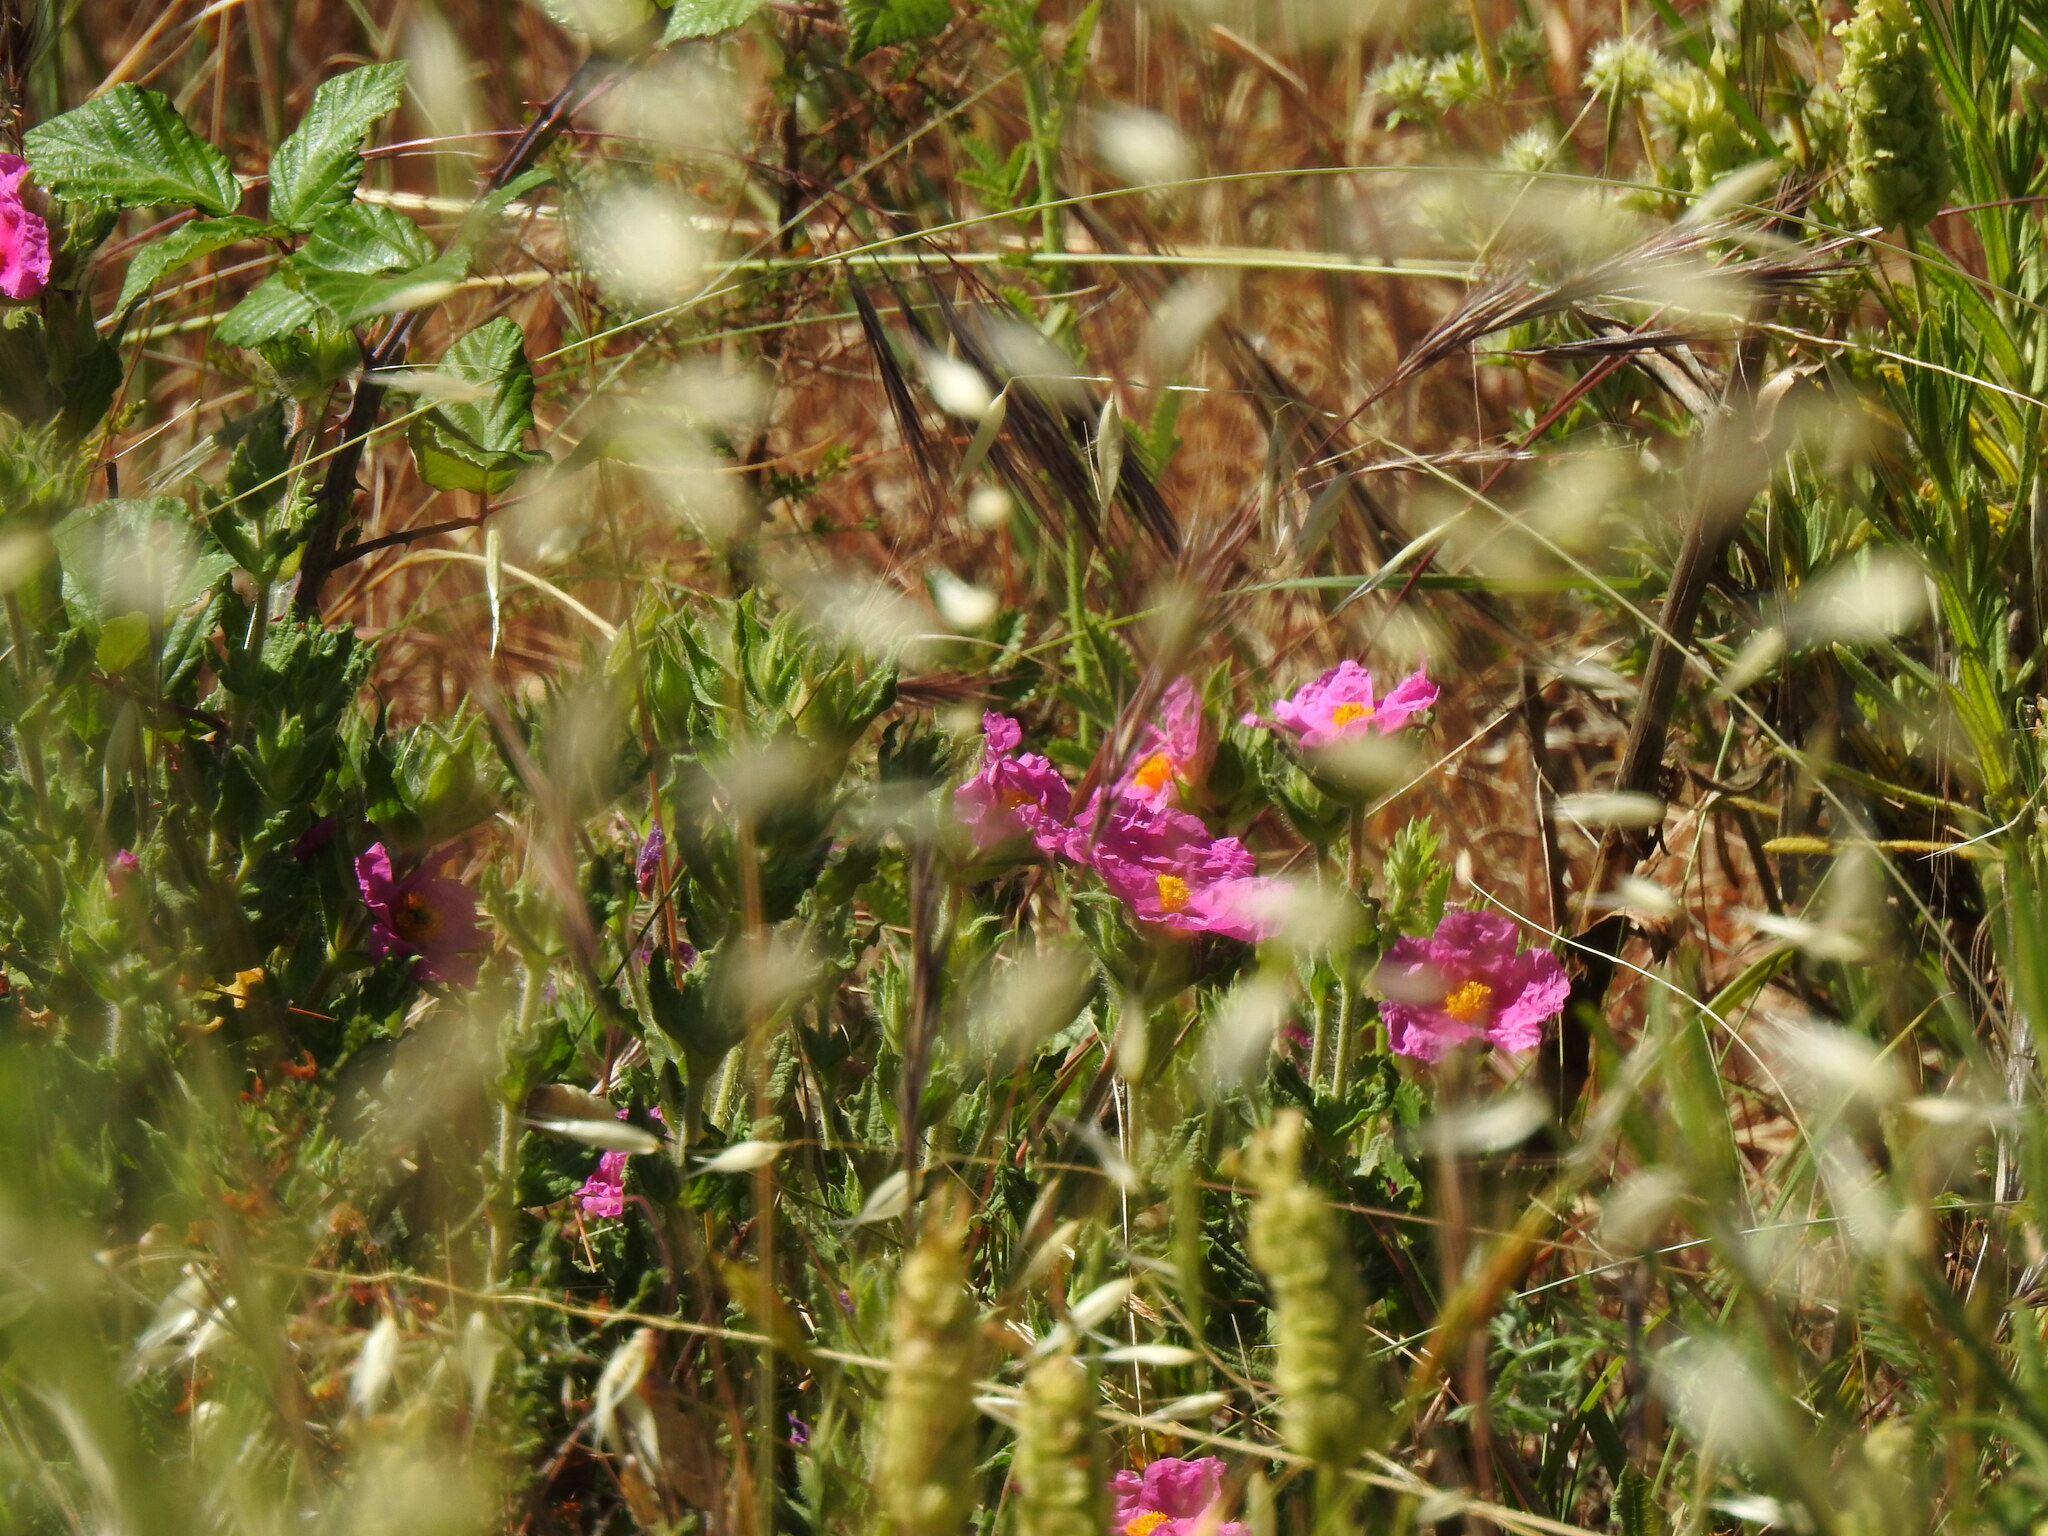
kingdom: Plantae
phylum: Tracheophyta
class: Magnoliopsida
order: Malvales
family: Cistaceae
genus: Cistus
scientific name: Cistus crispus
